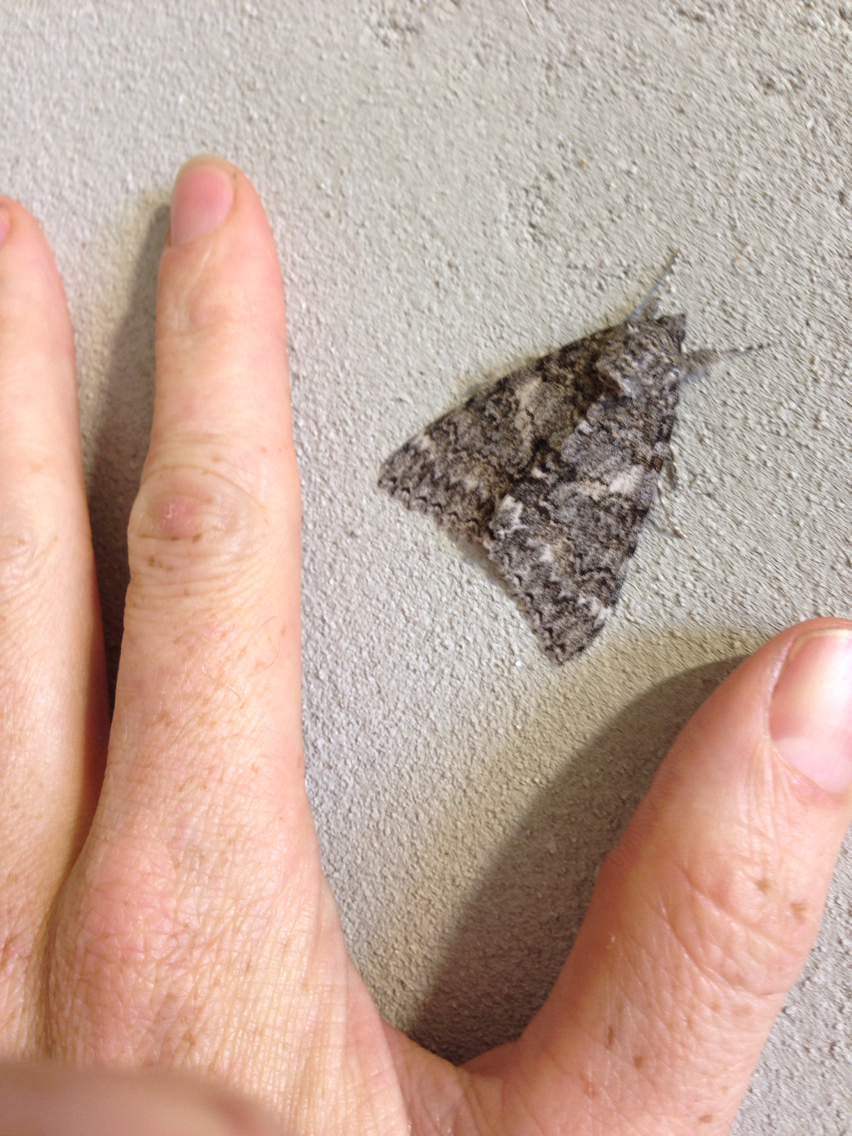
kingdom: Animalia
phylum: Arthropoda
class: Insecta
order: Lepidoptera
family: Erebidae
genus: Catocala
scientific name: Catocala unijuga
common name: Once-married underwing
